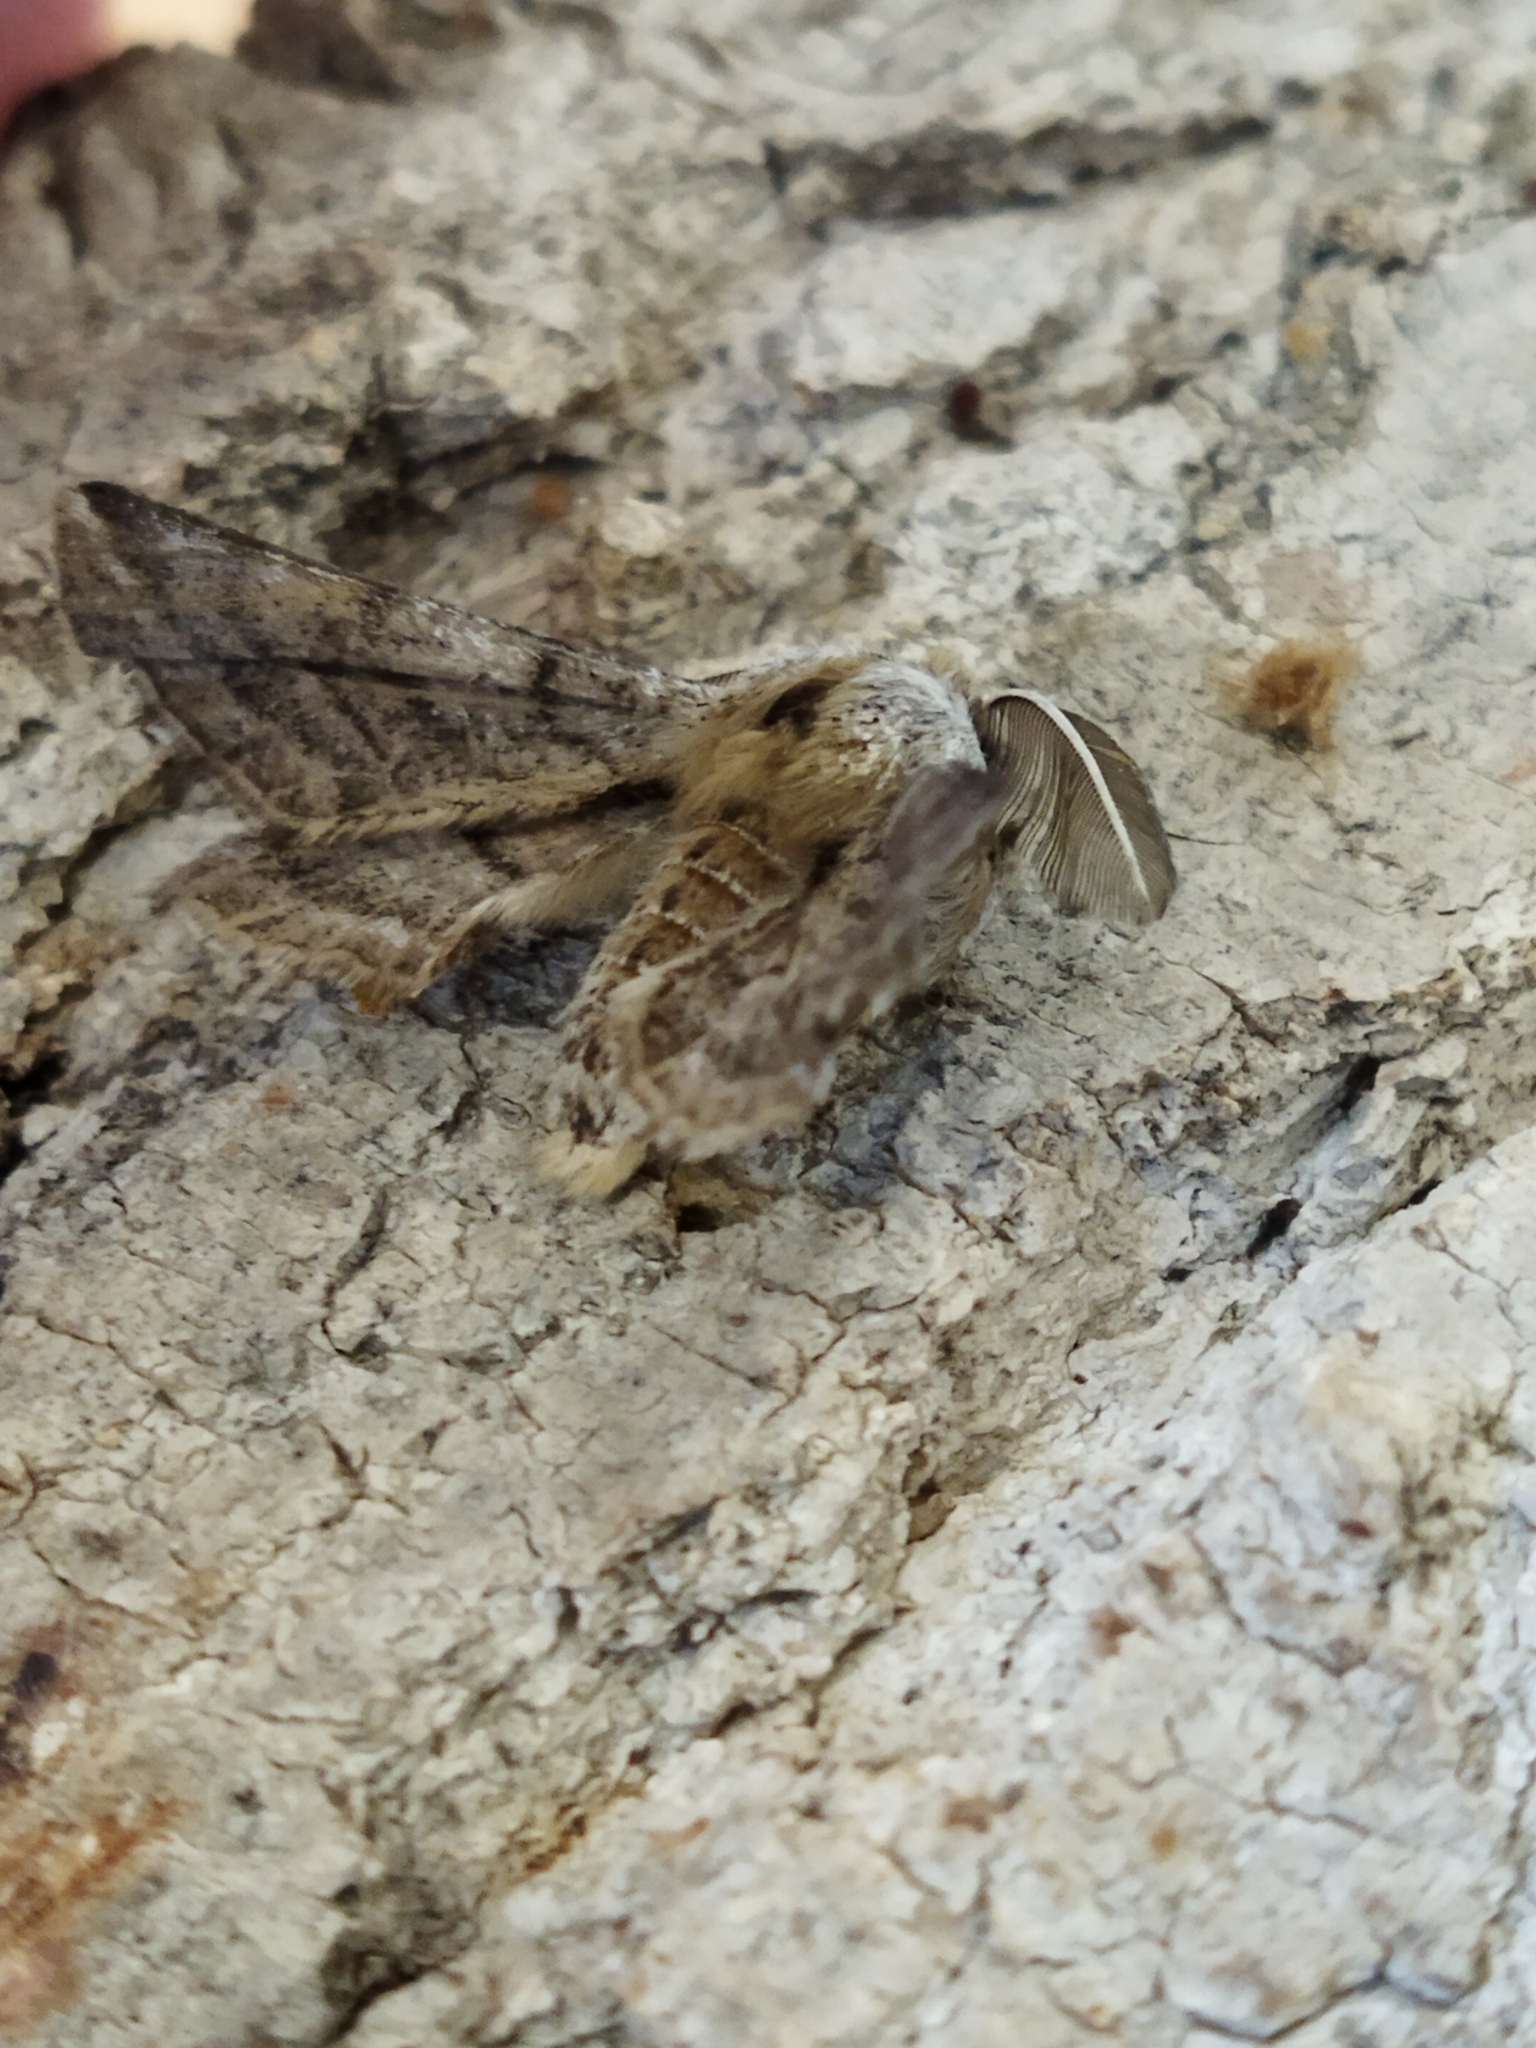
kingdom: Animalia
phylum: Arthropoda
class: Insecta
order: Lepidoptera
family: Geometridae
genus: Apochima
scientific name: Apochima flabellaria
